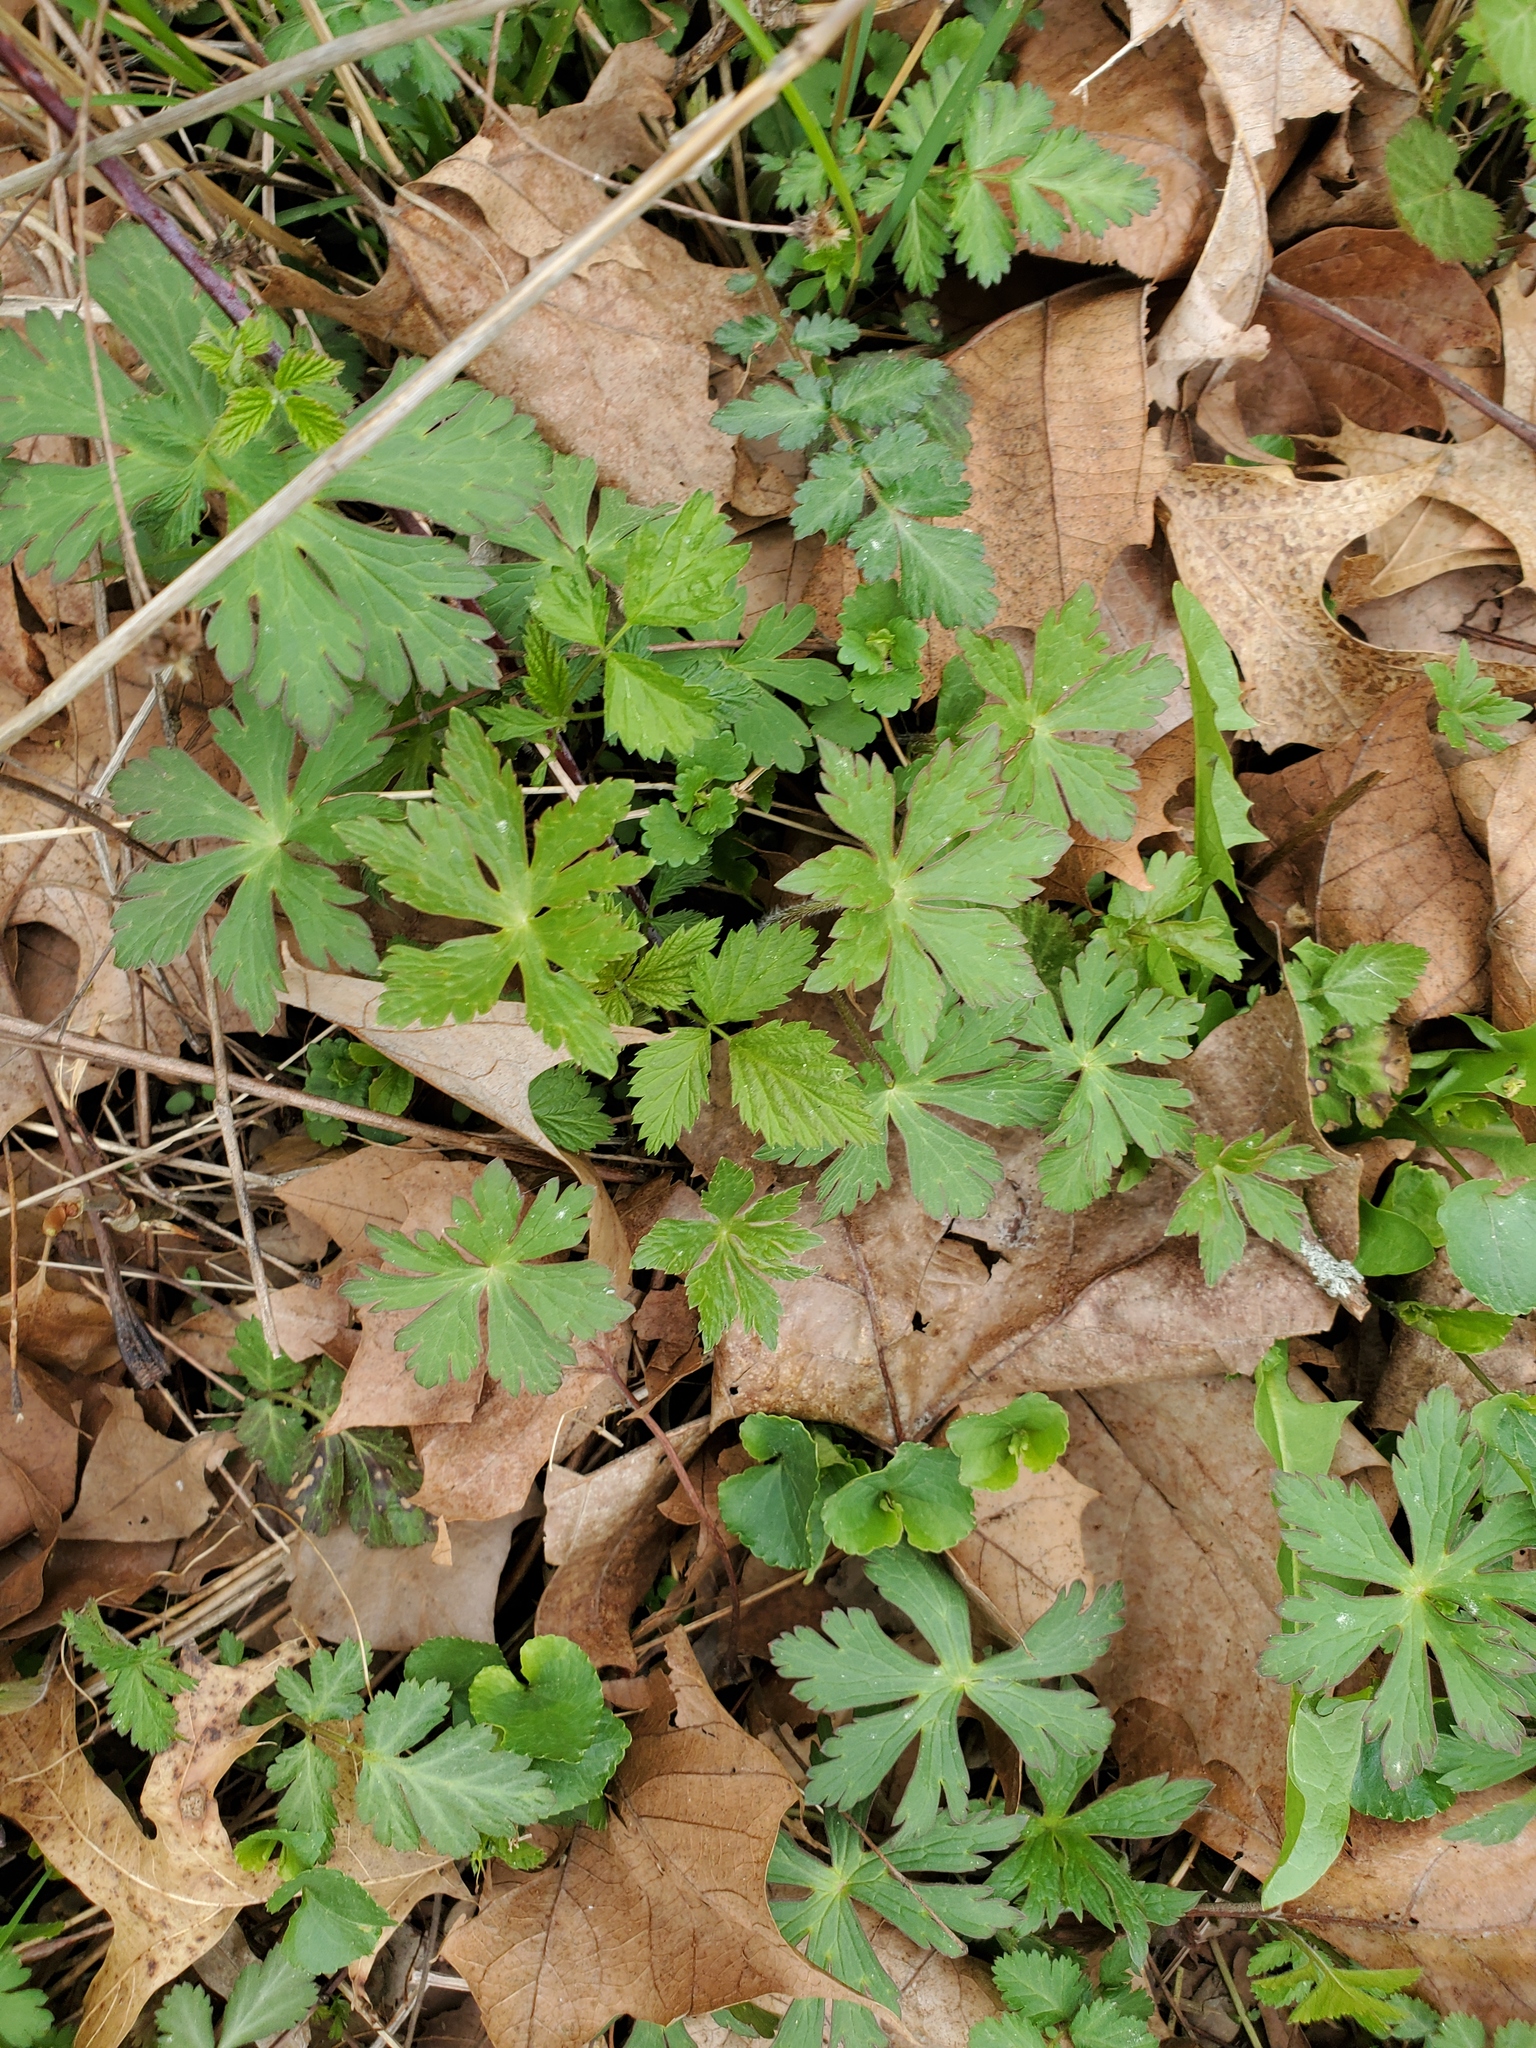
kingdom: Plantae
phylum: Tracheophyta
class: Magnoliopsida
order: Geraniales
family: Geraniaceae
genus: Geranium
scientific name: Geranium maculatum
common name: Spotted geranium
